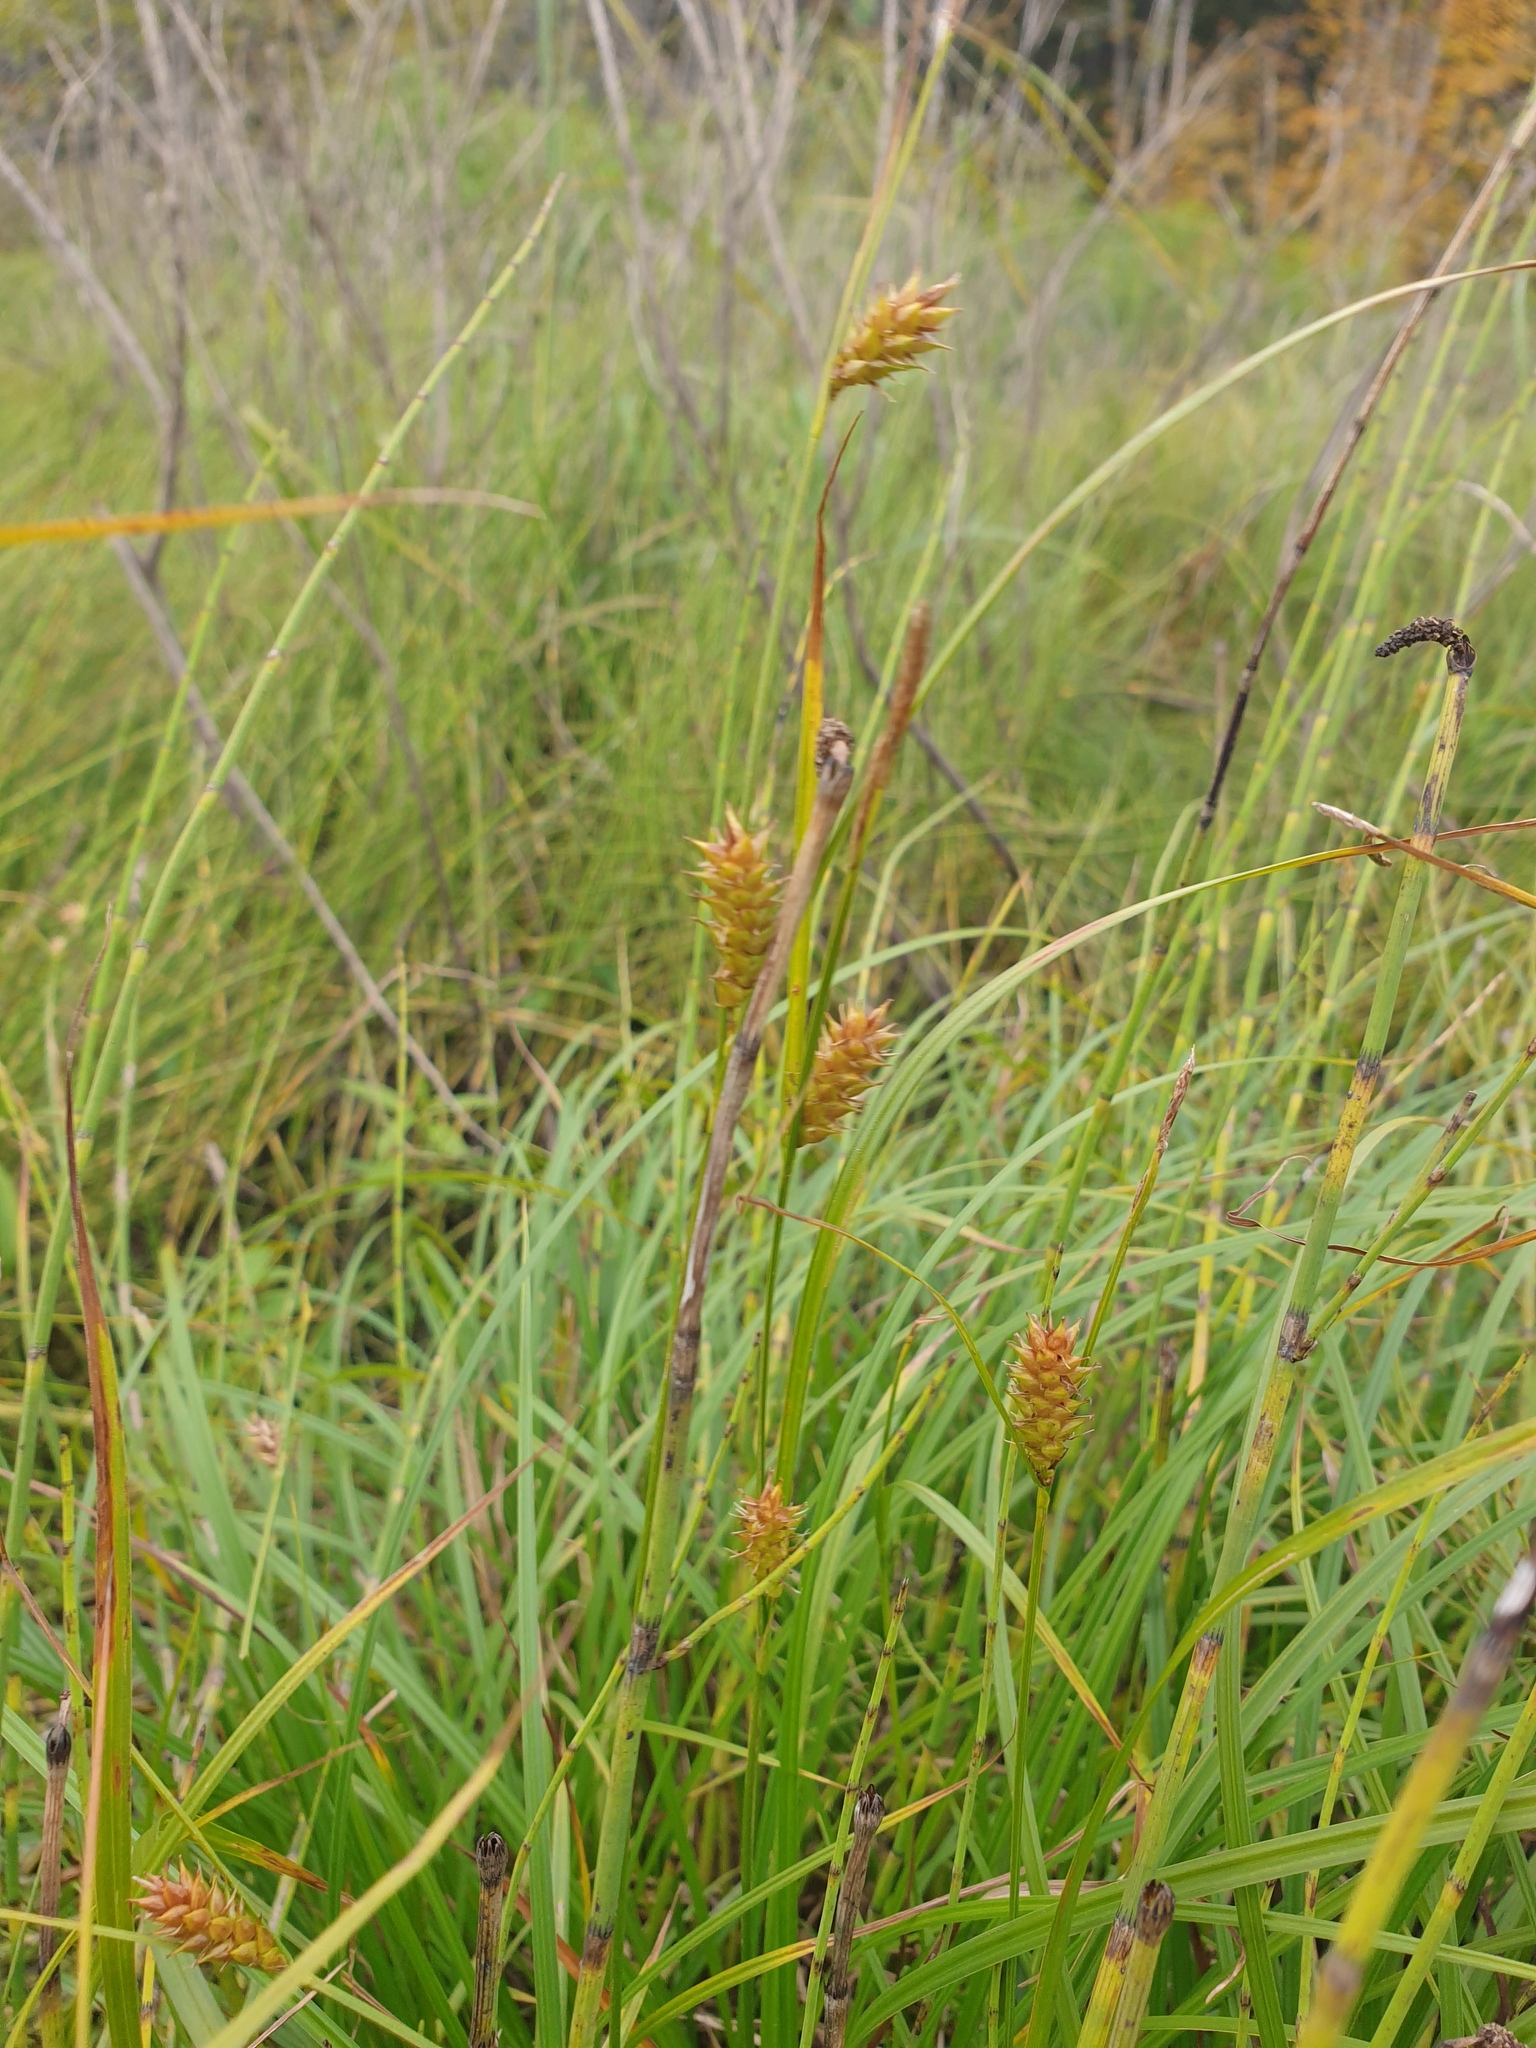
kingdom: Plantae
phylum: Tracheophyta
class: Liliopsida
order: Poales
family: Cyperaceae
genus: Carex
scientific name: Carex vesicaria
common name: Bladder-sedge
